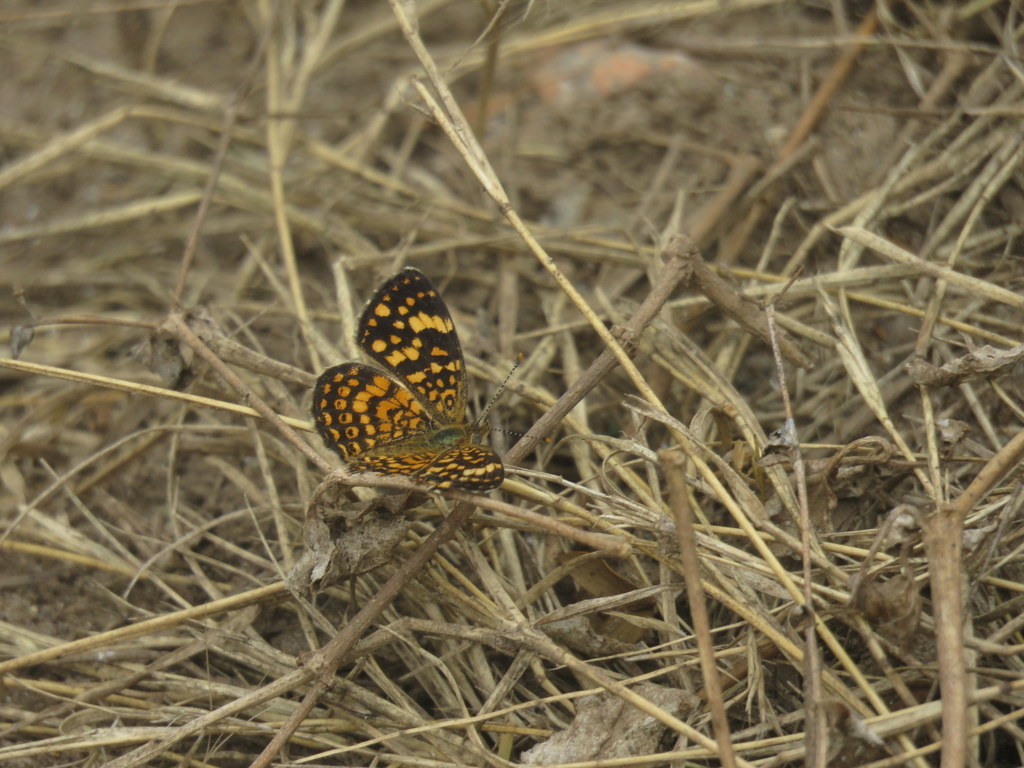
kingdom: Animalia
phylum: Arthropoda
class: Insecta
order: Lepidoptera
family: Nymphalidae
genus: Phystis
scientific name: Phystis simois
